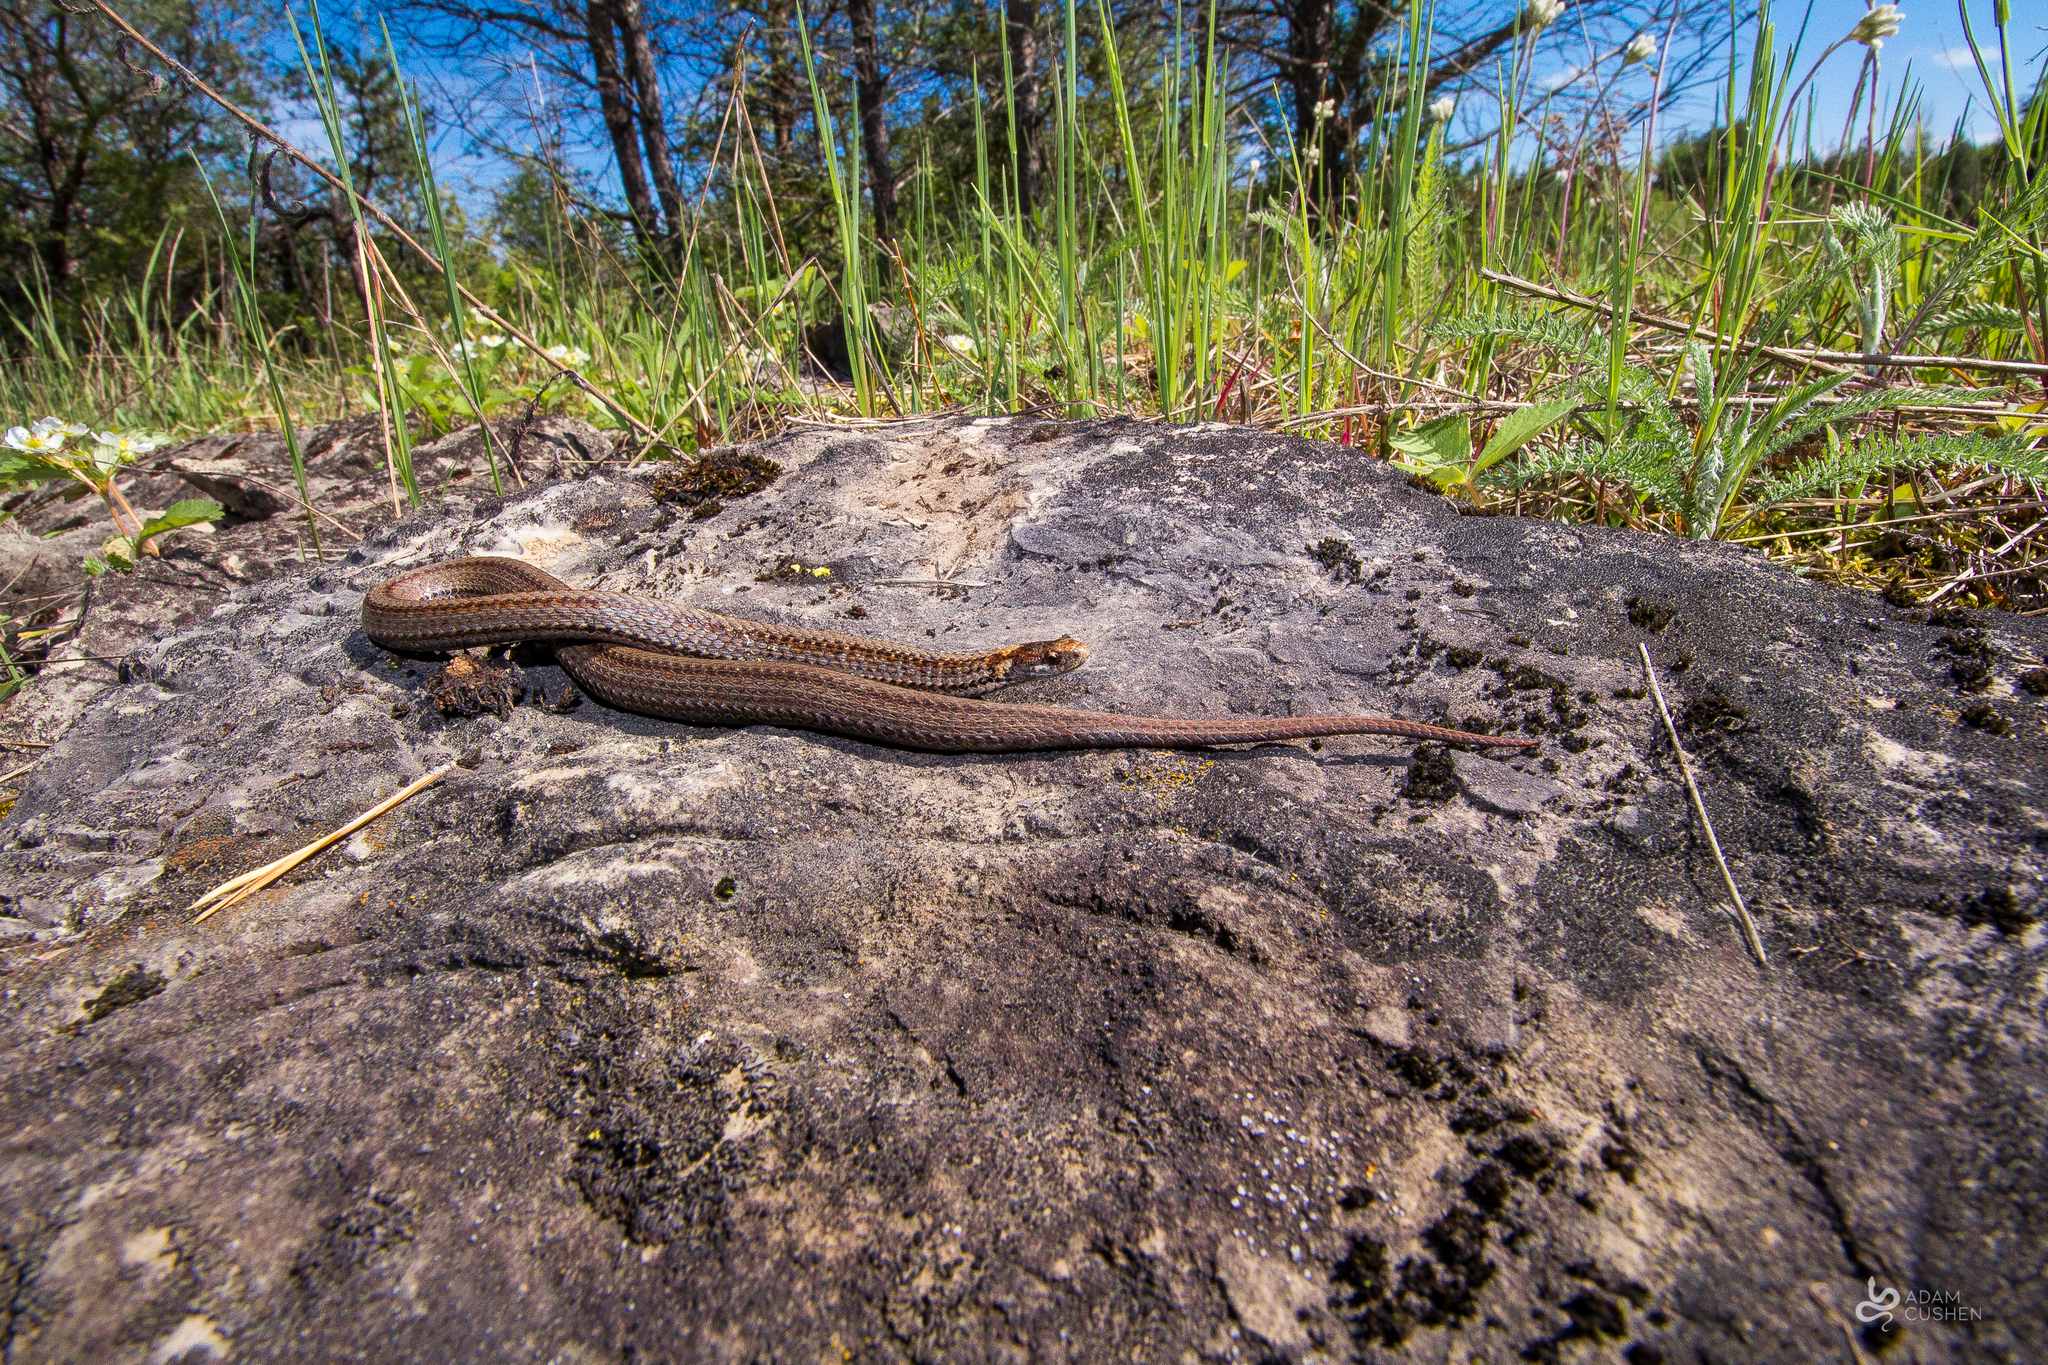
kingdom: Animalia
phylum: Chordata
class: Squamata
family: Colubridae
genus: Storeria
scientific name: Storeria occipitomaculata
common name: Redbelly snake
